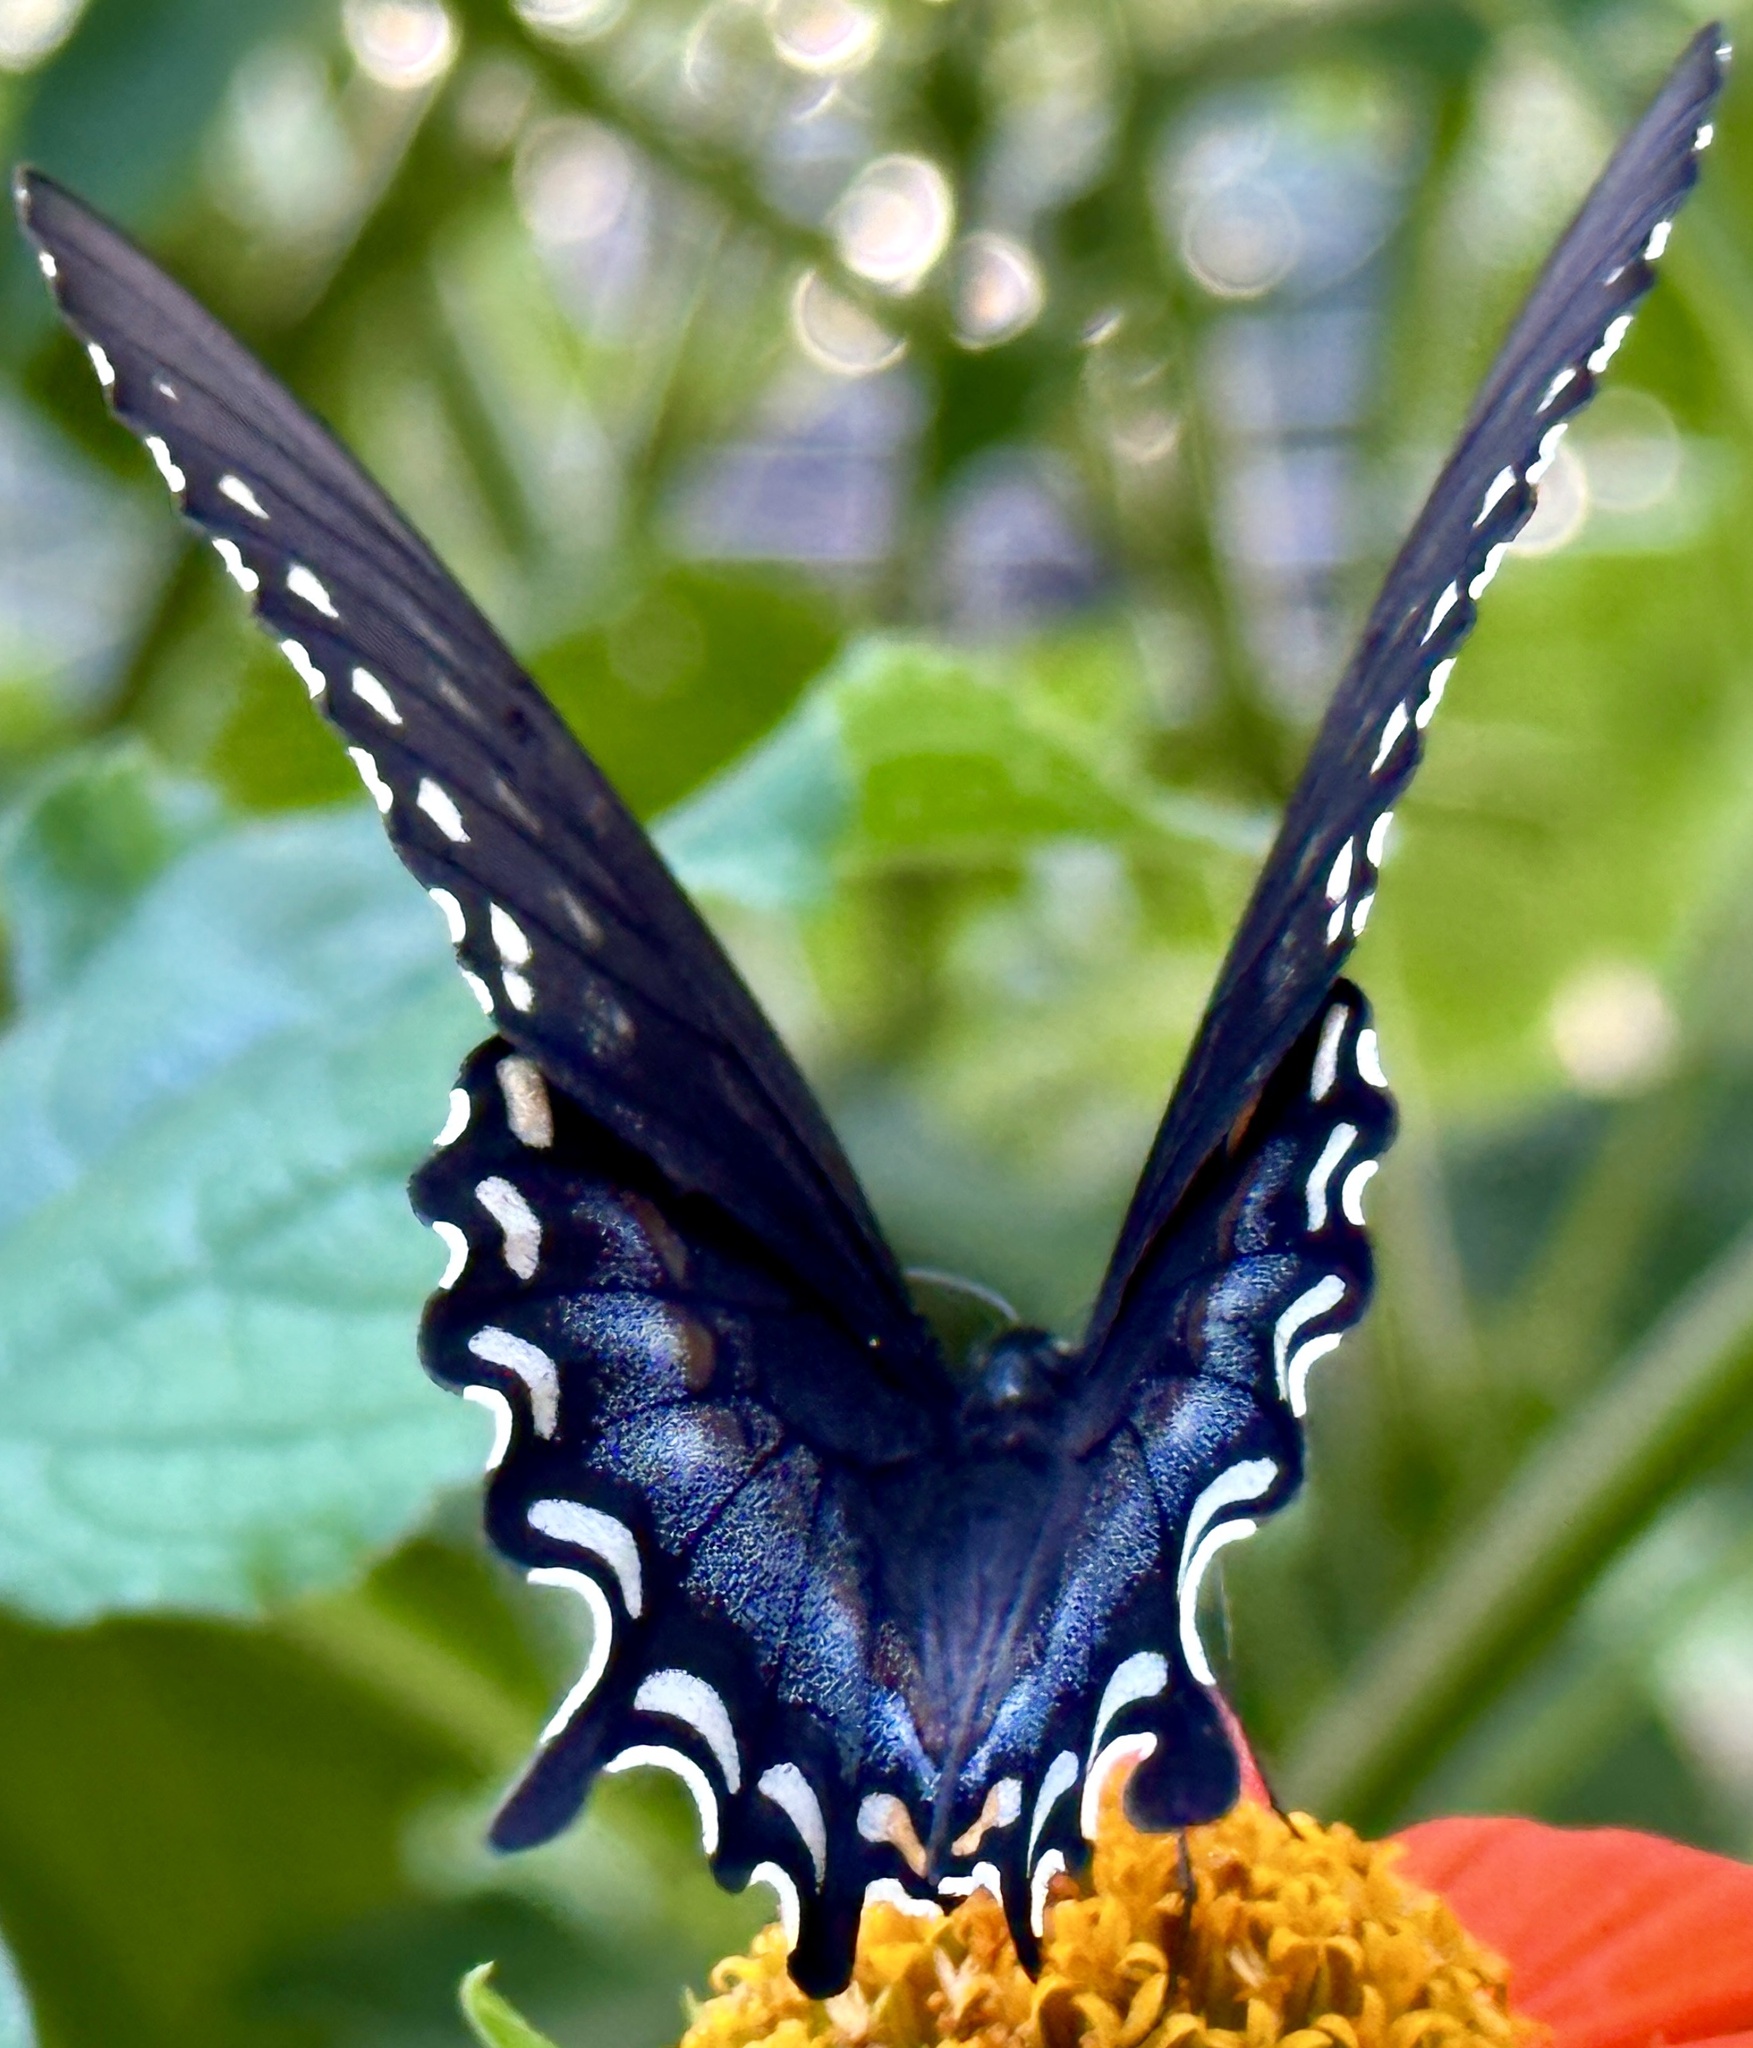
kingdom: Animalia
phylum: Arthropoda
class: Insecta
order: Lepidoptera
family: Papilionidae
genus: Papilio
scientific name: Papilio troilus
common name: Spicebush swallowtail
